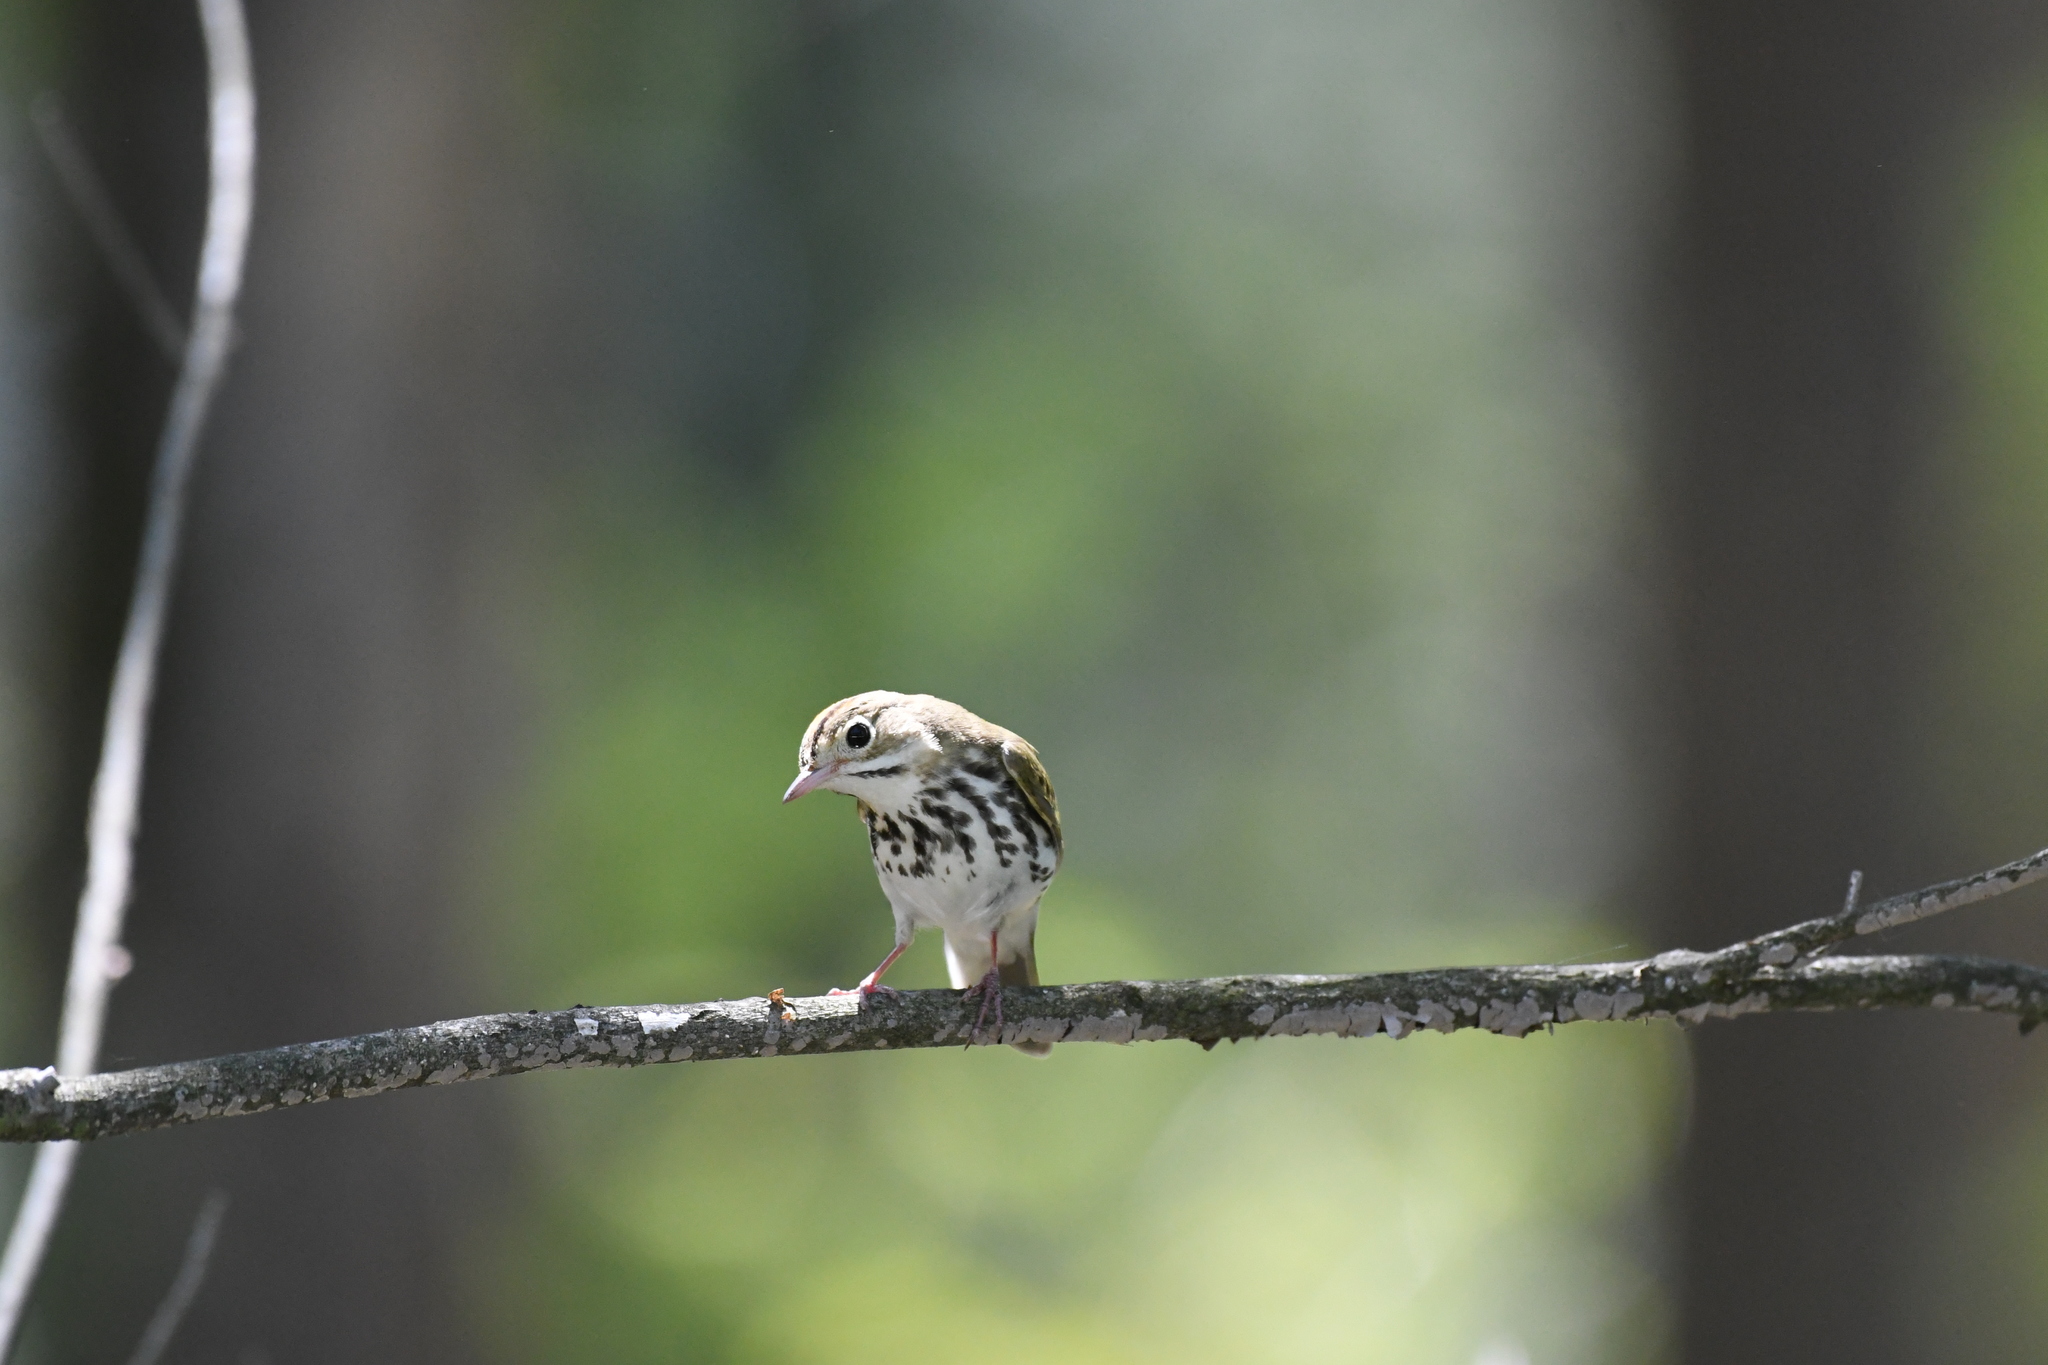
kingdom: Animalia
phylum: Chordata
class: Aves
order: Passeriformes
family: Parulidae
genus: Seiurus
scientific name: Seiurus aurocapilla
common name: Ovenbird
